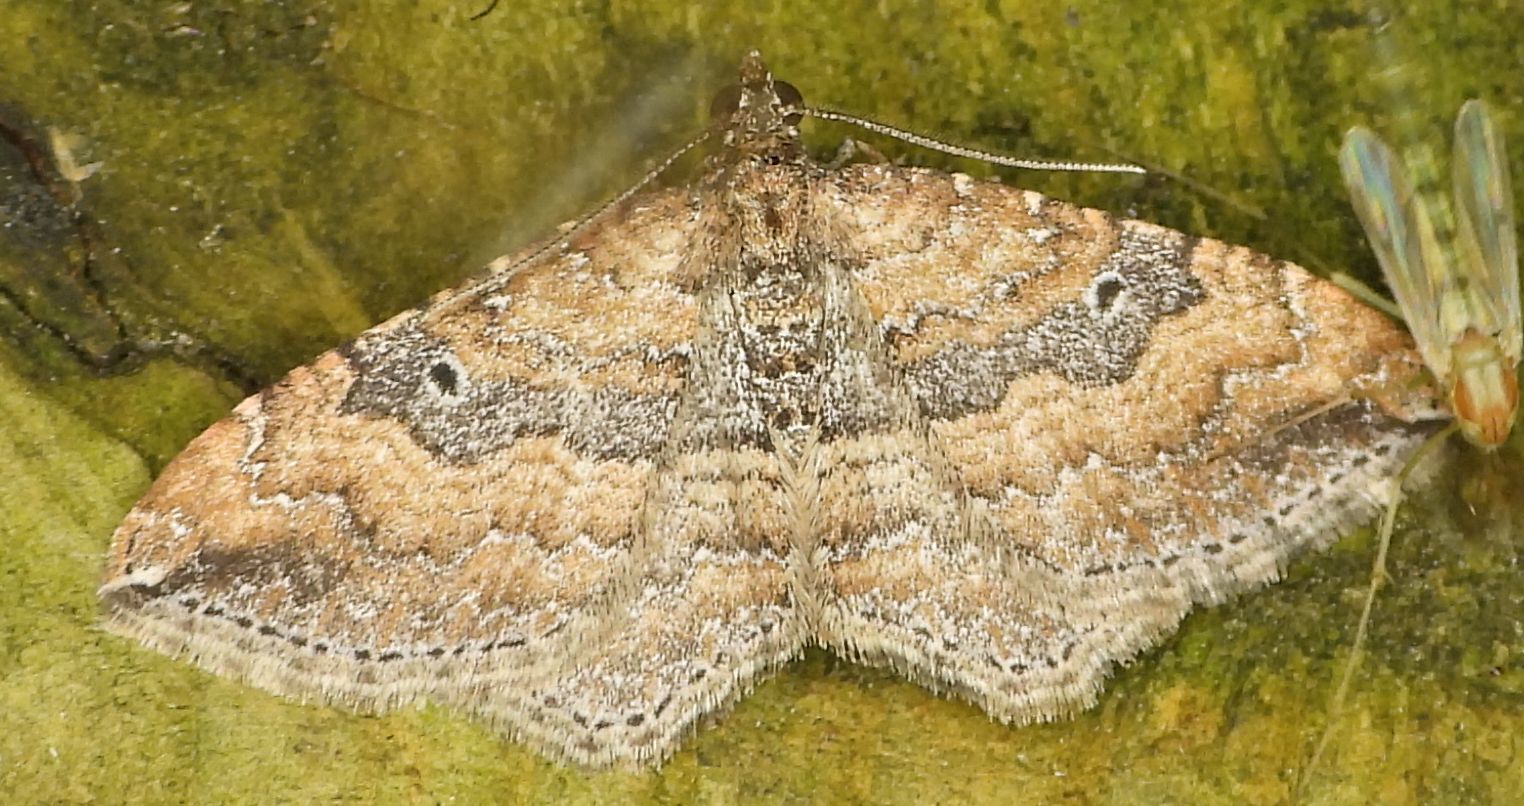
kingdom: Animalia
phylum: Arthropoda
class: Insecta
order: Lepidoptera
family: Geometridae
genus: Orthonama
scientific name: Orthonama obstipata
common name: The gem
